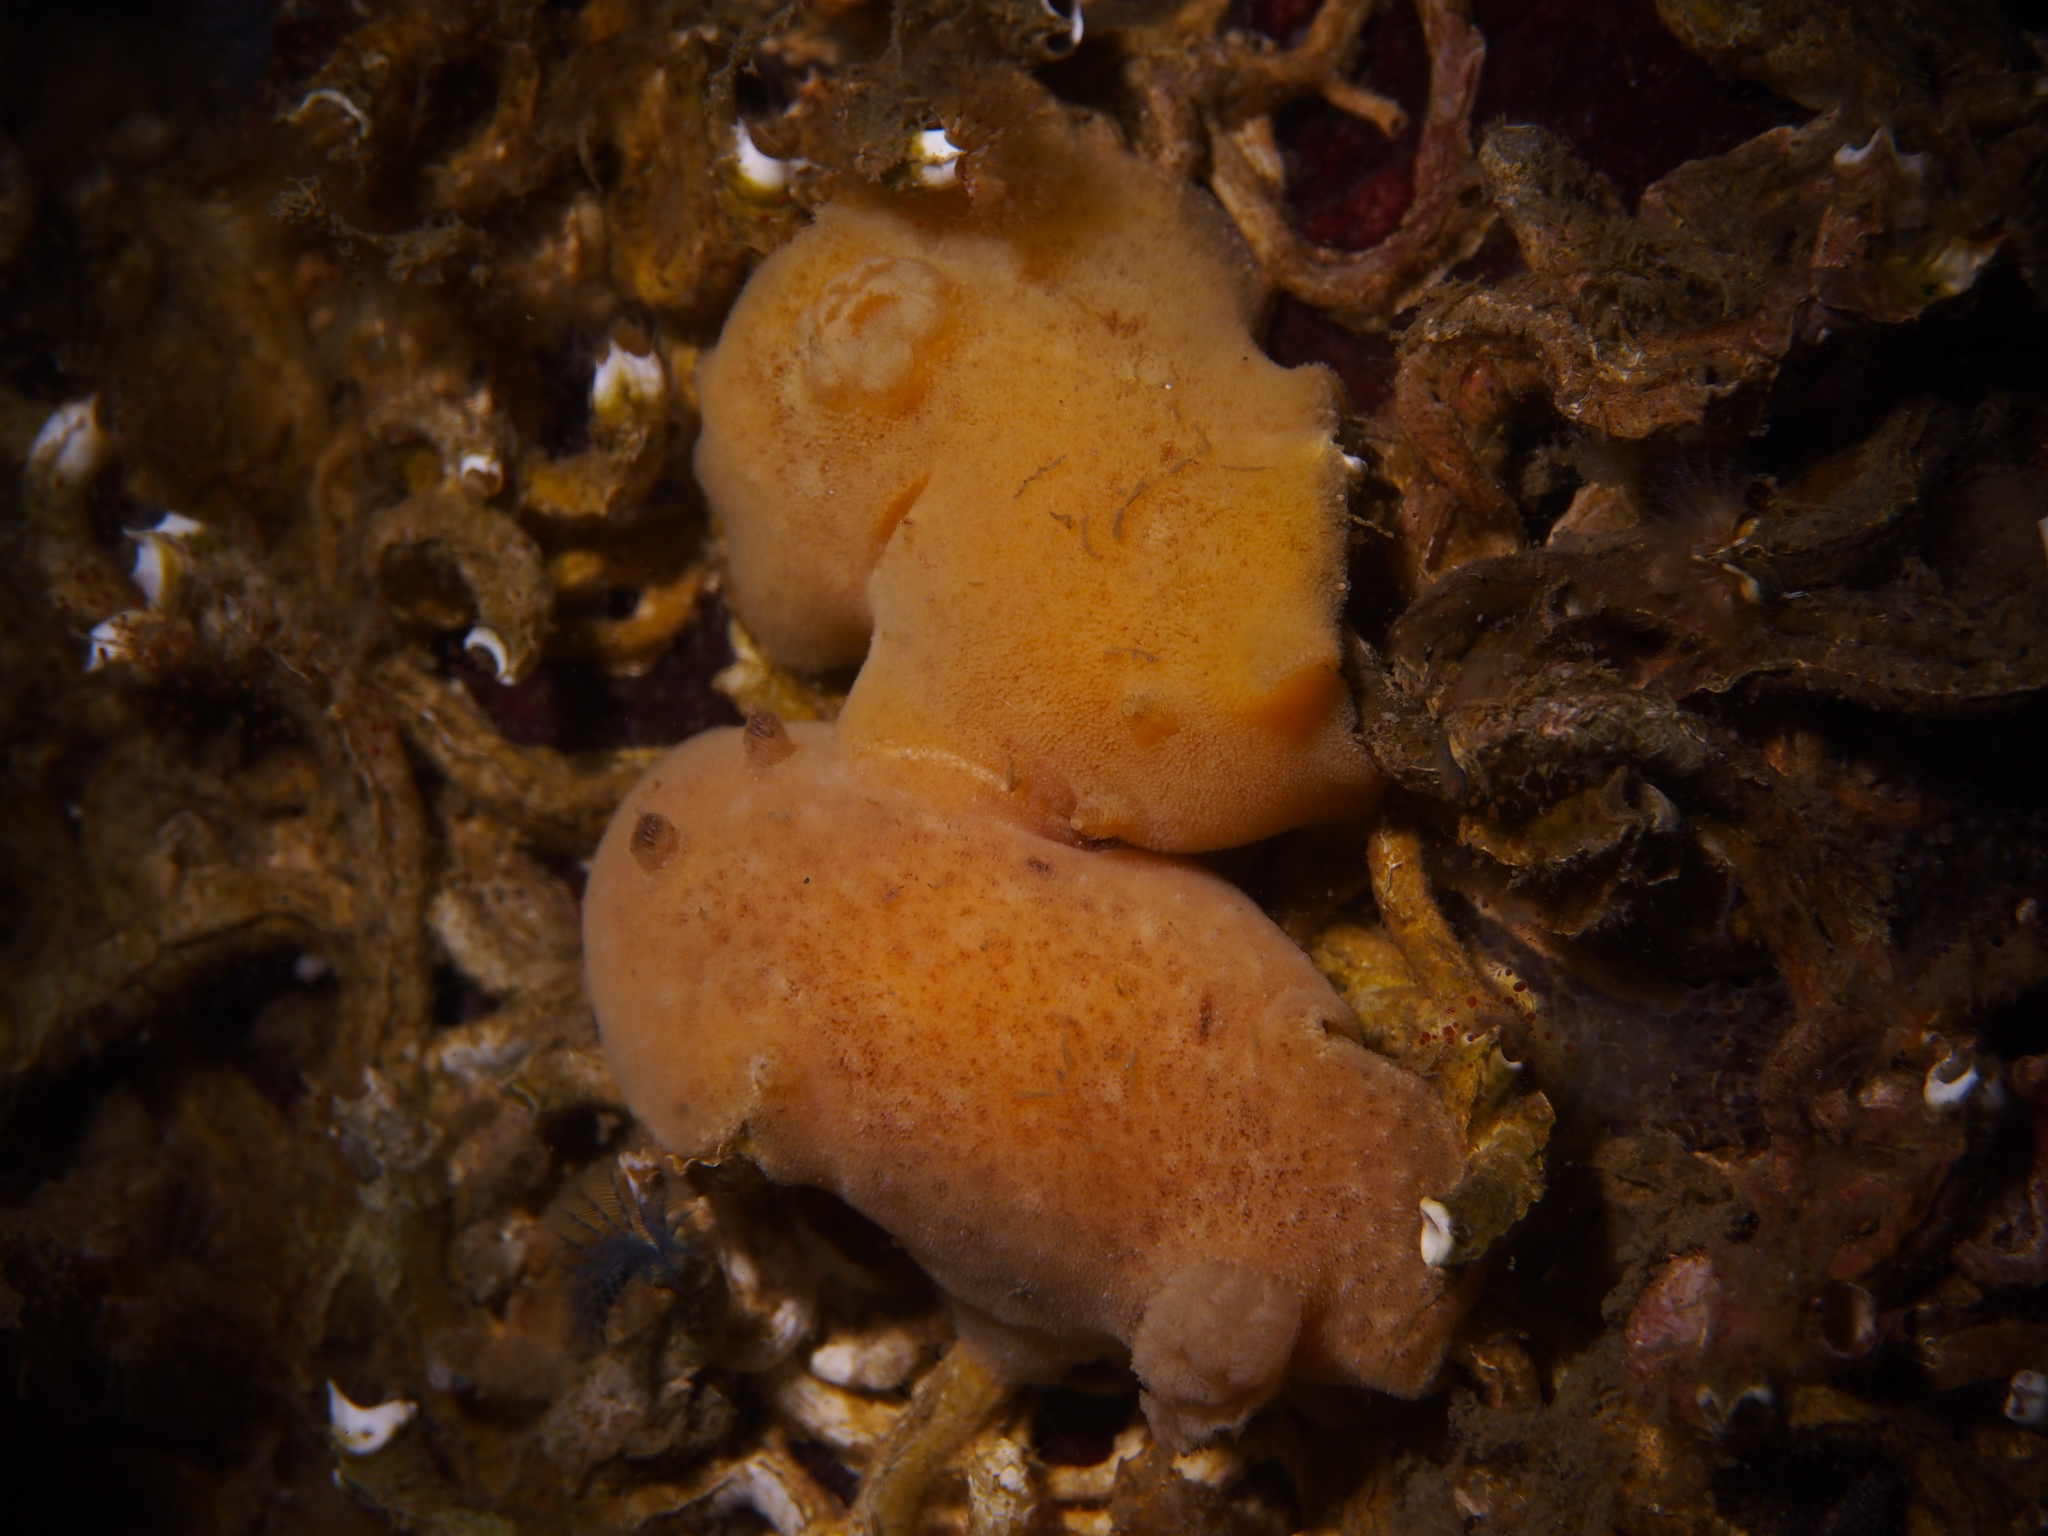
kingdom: Animalia
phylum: Mollusca
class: Gastropoda
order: Nudibranchia
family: Discodorididae
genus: Jorunna
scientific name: Jorunna tomentosa
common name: Grey sea slug
